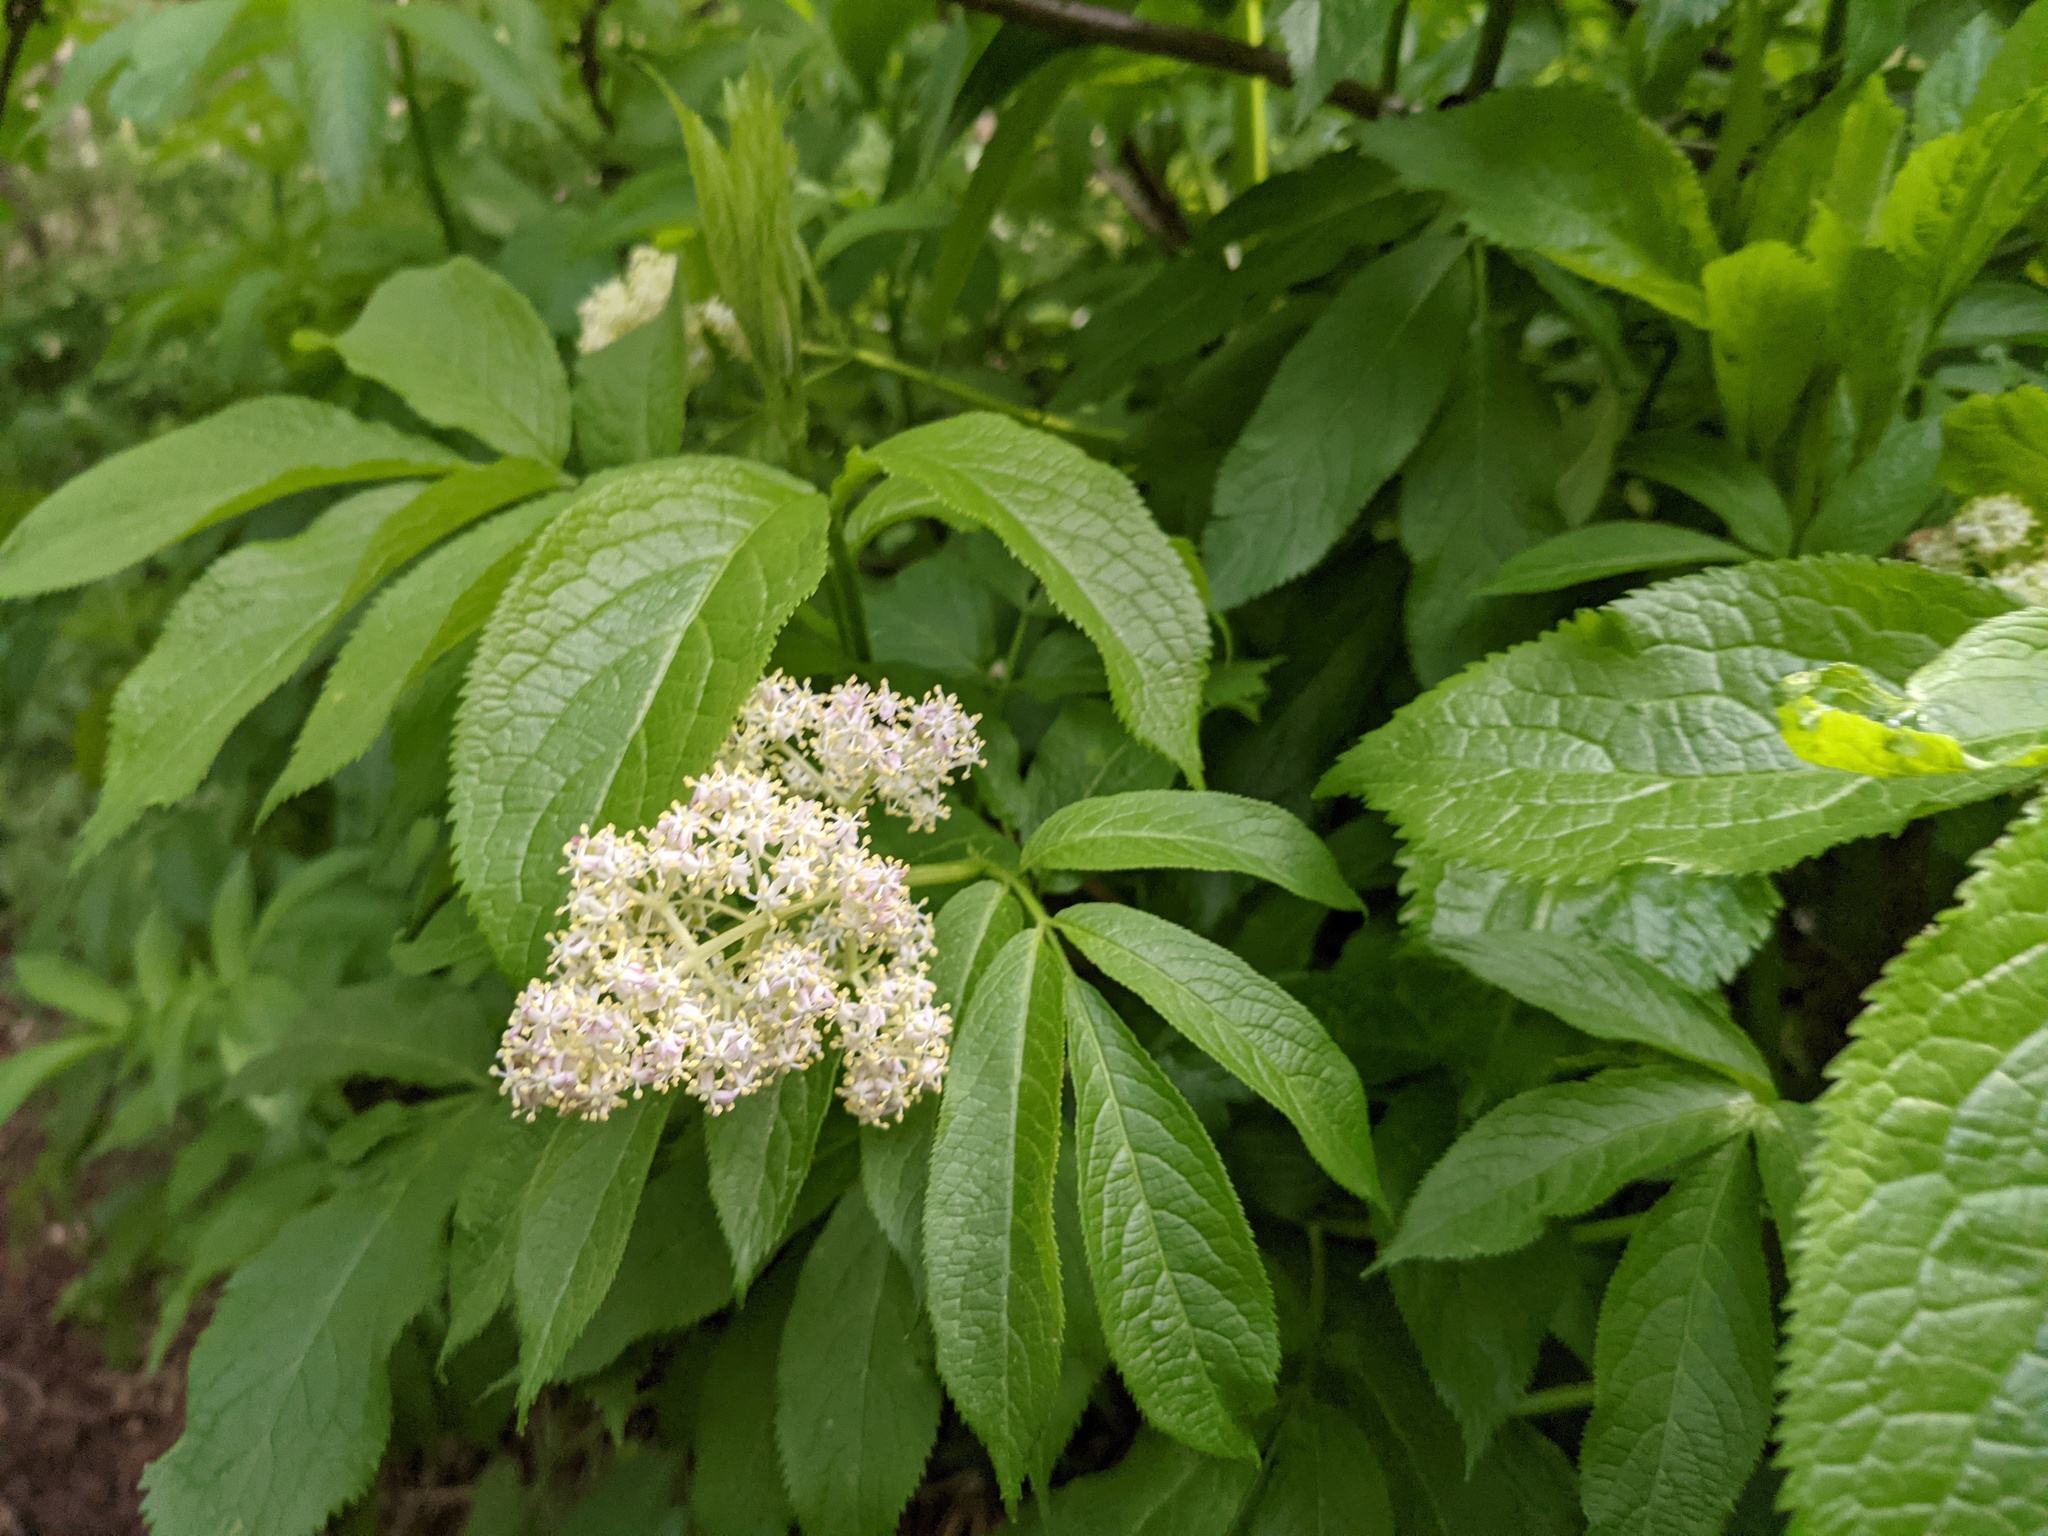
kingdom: Plantae
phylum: Tracheophyta
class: Magnoliopsida
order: Dipsacales
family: Viburnaceae
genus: Sambucus
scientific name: Sambucus racemosa
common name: Red-berried elder
